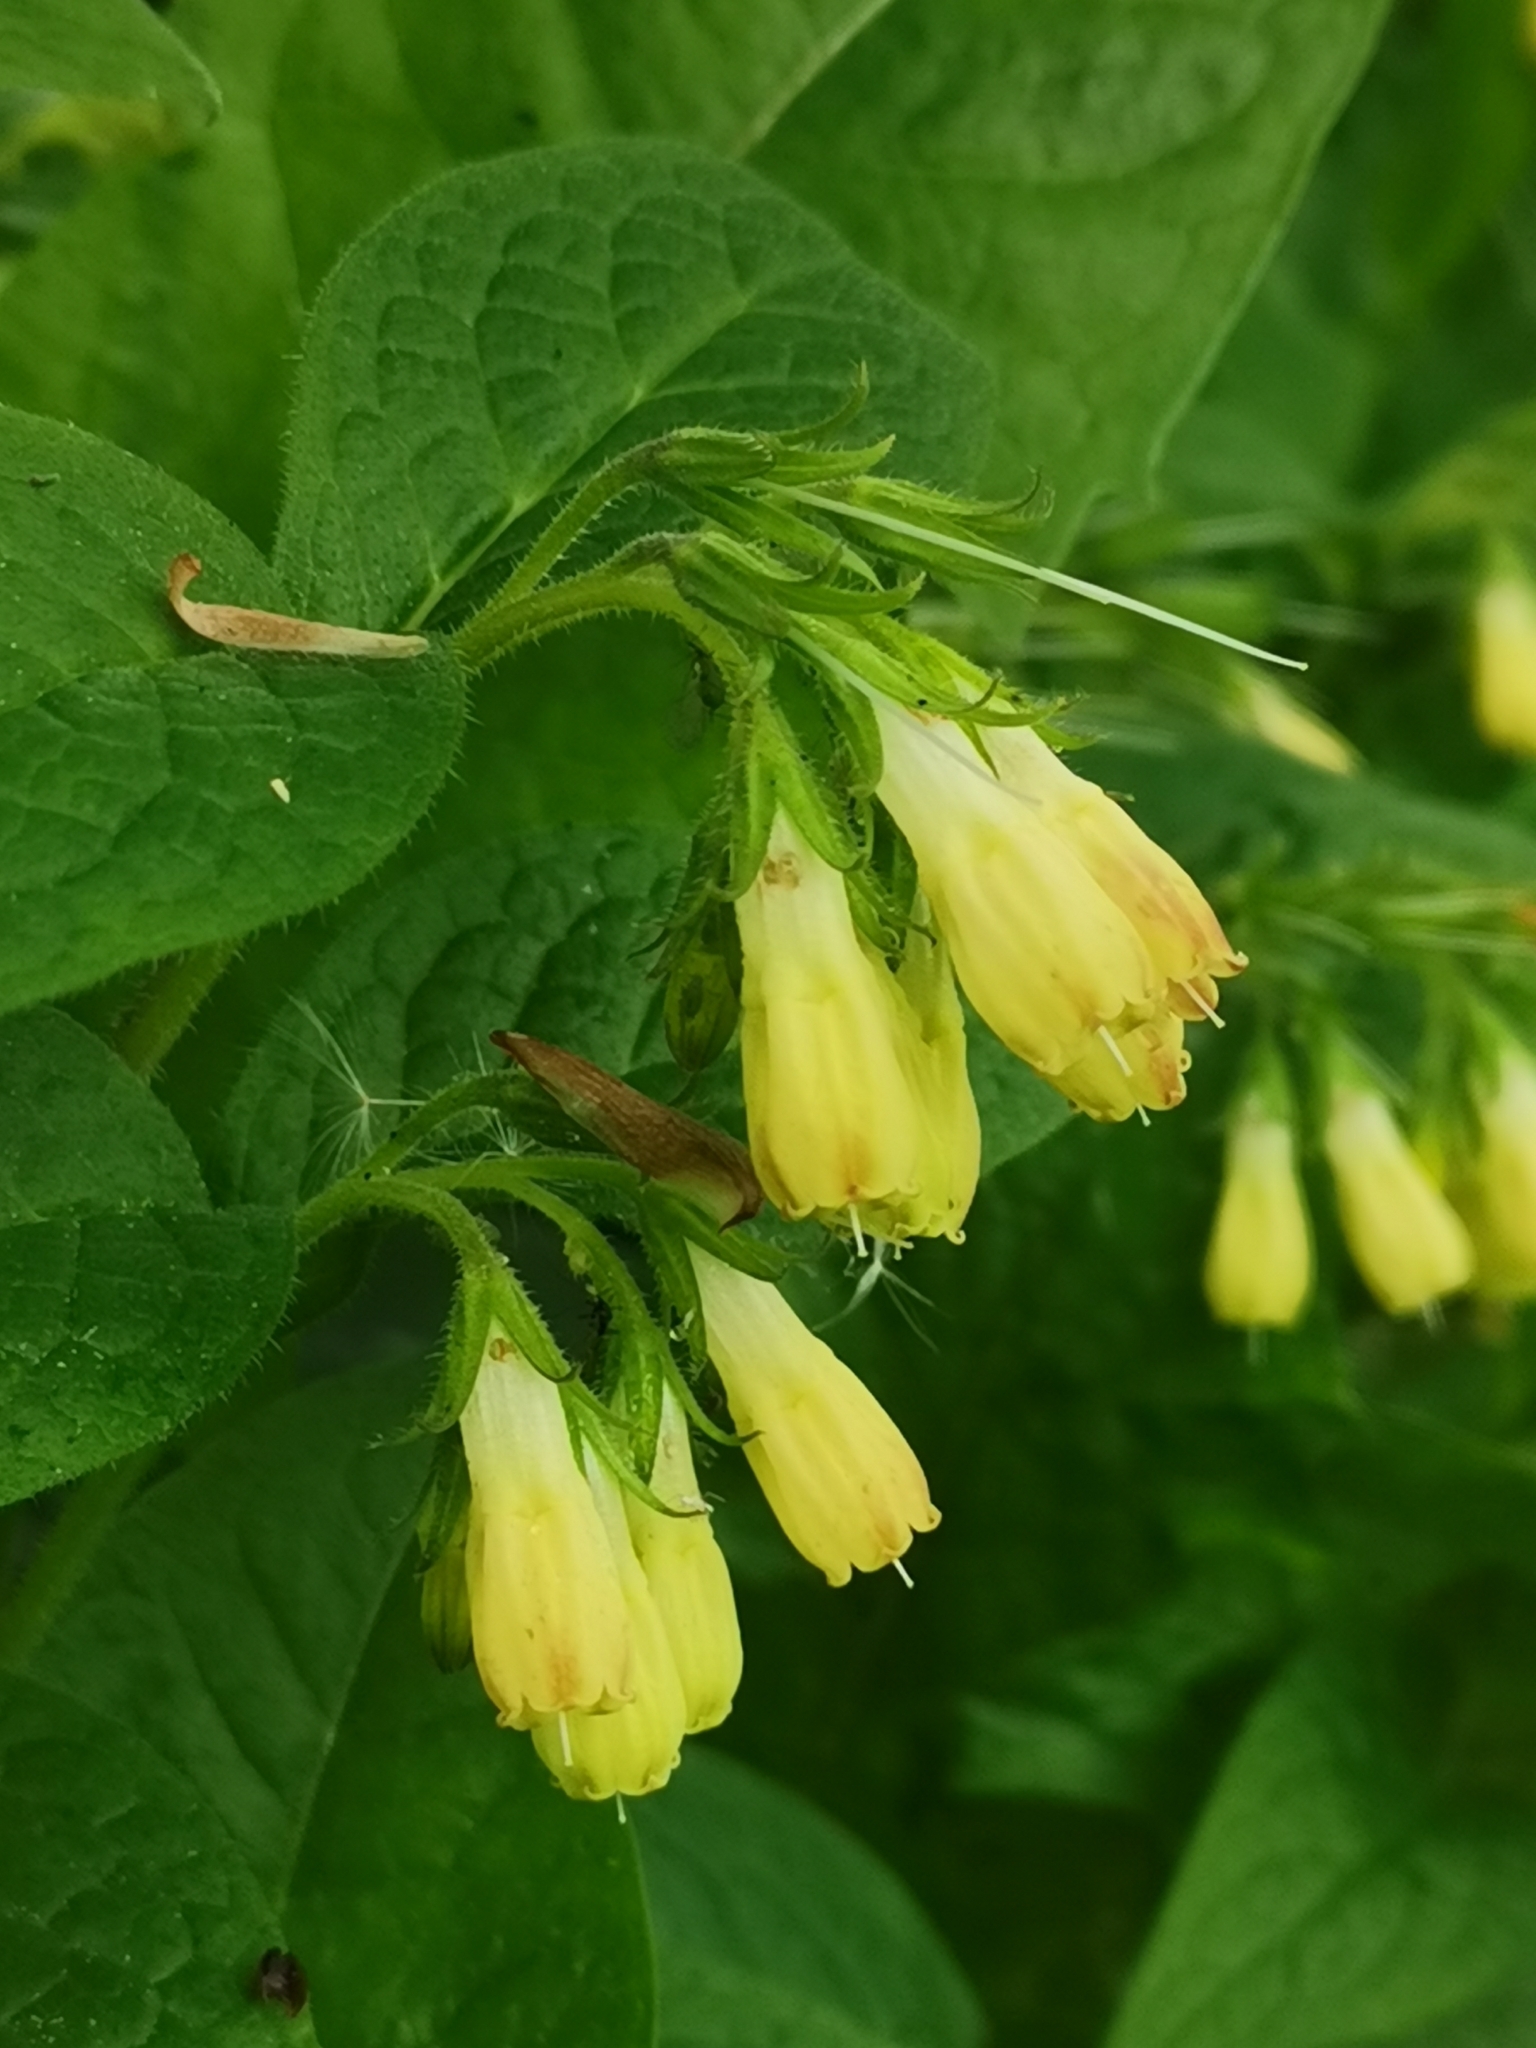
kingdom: Plantae
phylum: Tracheophyta
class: Magnoliopsida
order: Boraginales
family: Boraginaceae
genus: Symphytum
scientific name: Symphytum tuberosum
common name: Tuberous comfrey
